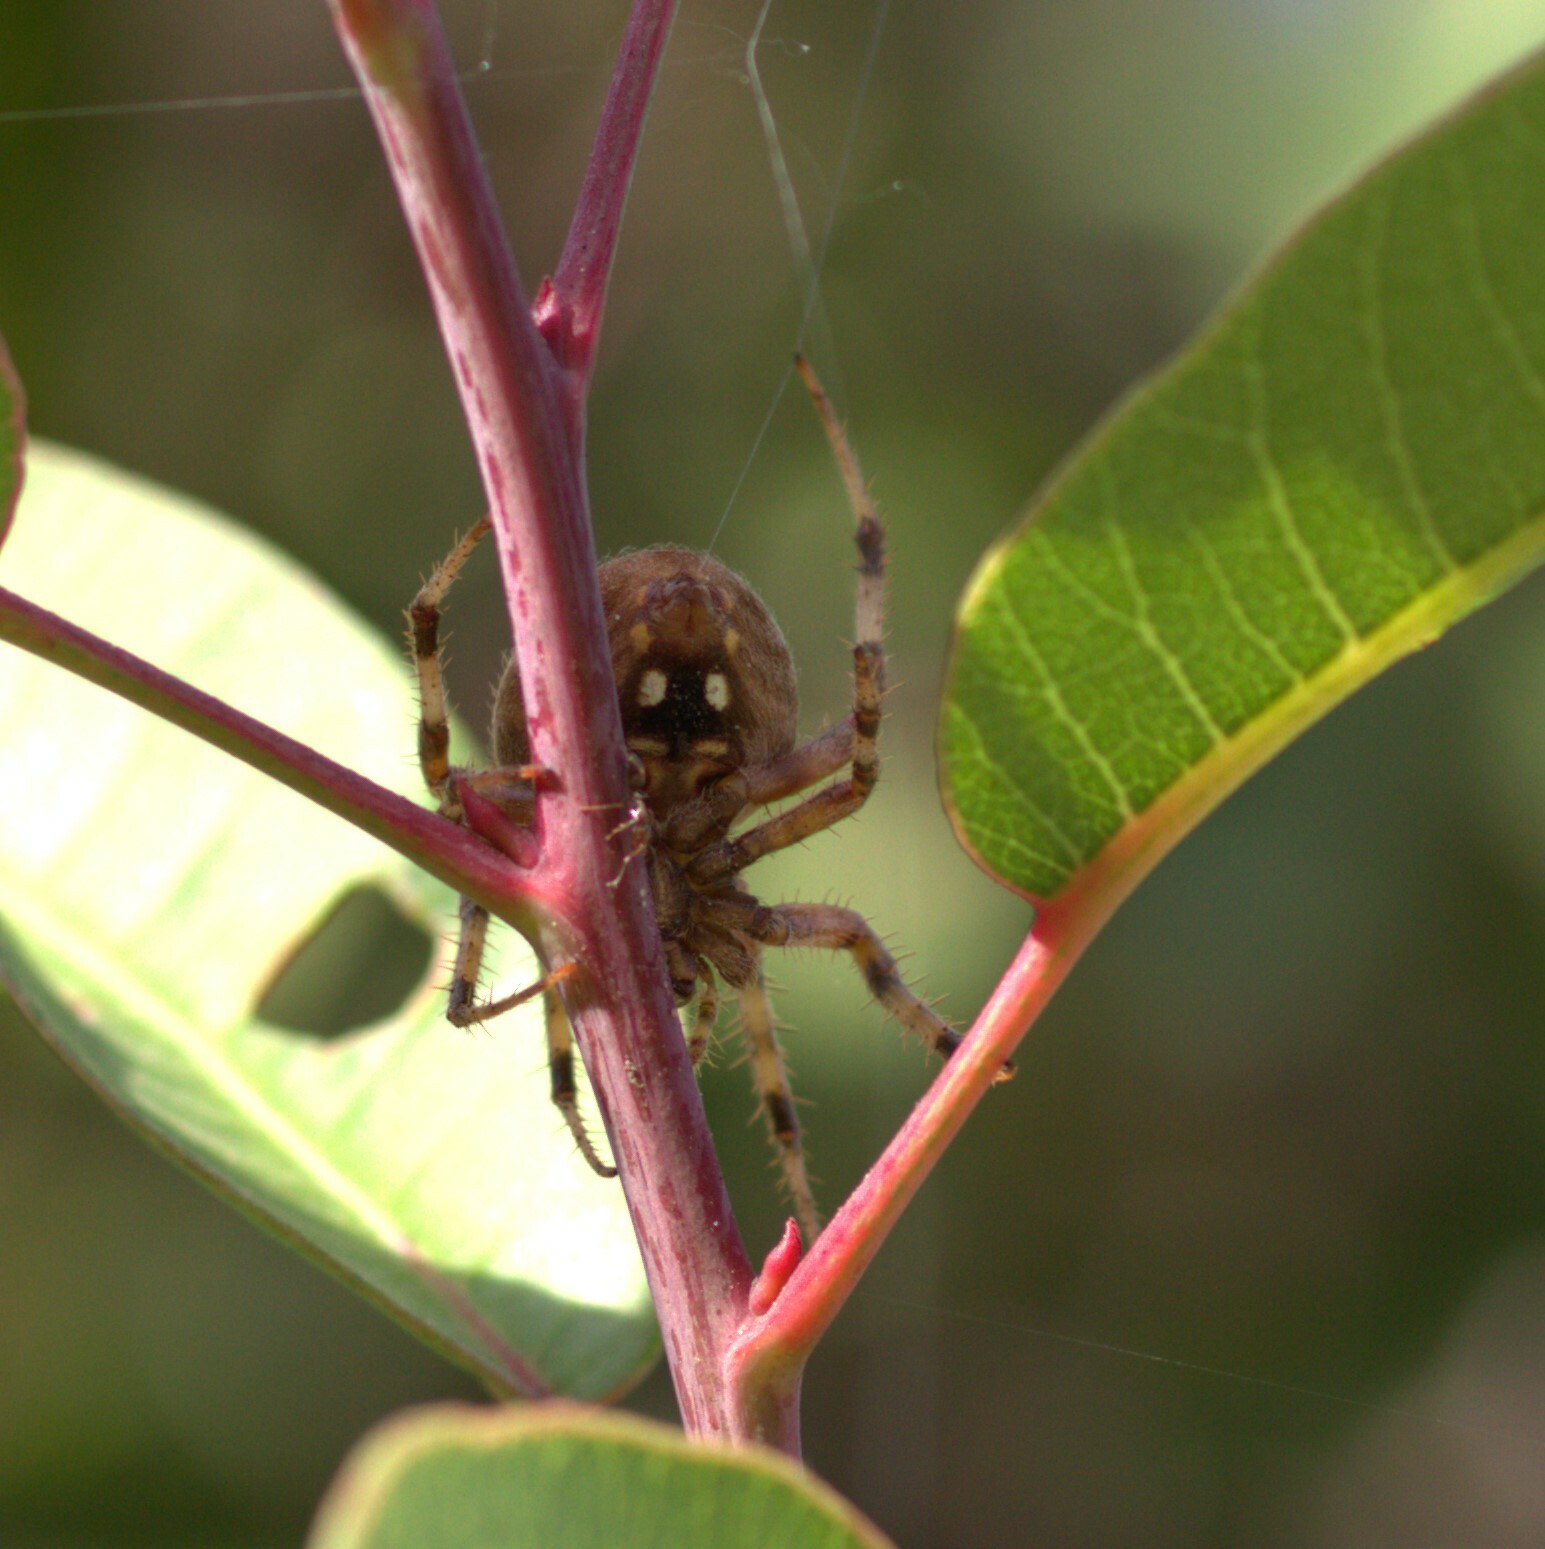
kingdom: Animalia
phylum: Arthropoda
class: Arachnida
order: Araneae
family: Araneidae
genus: Neoscona
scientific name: Neoscona crucifera
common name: Spotted orbweaver
